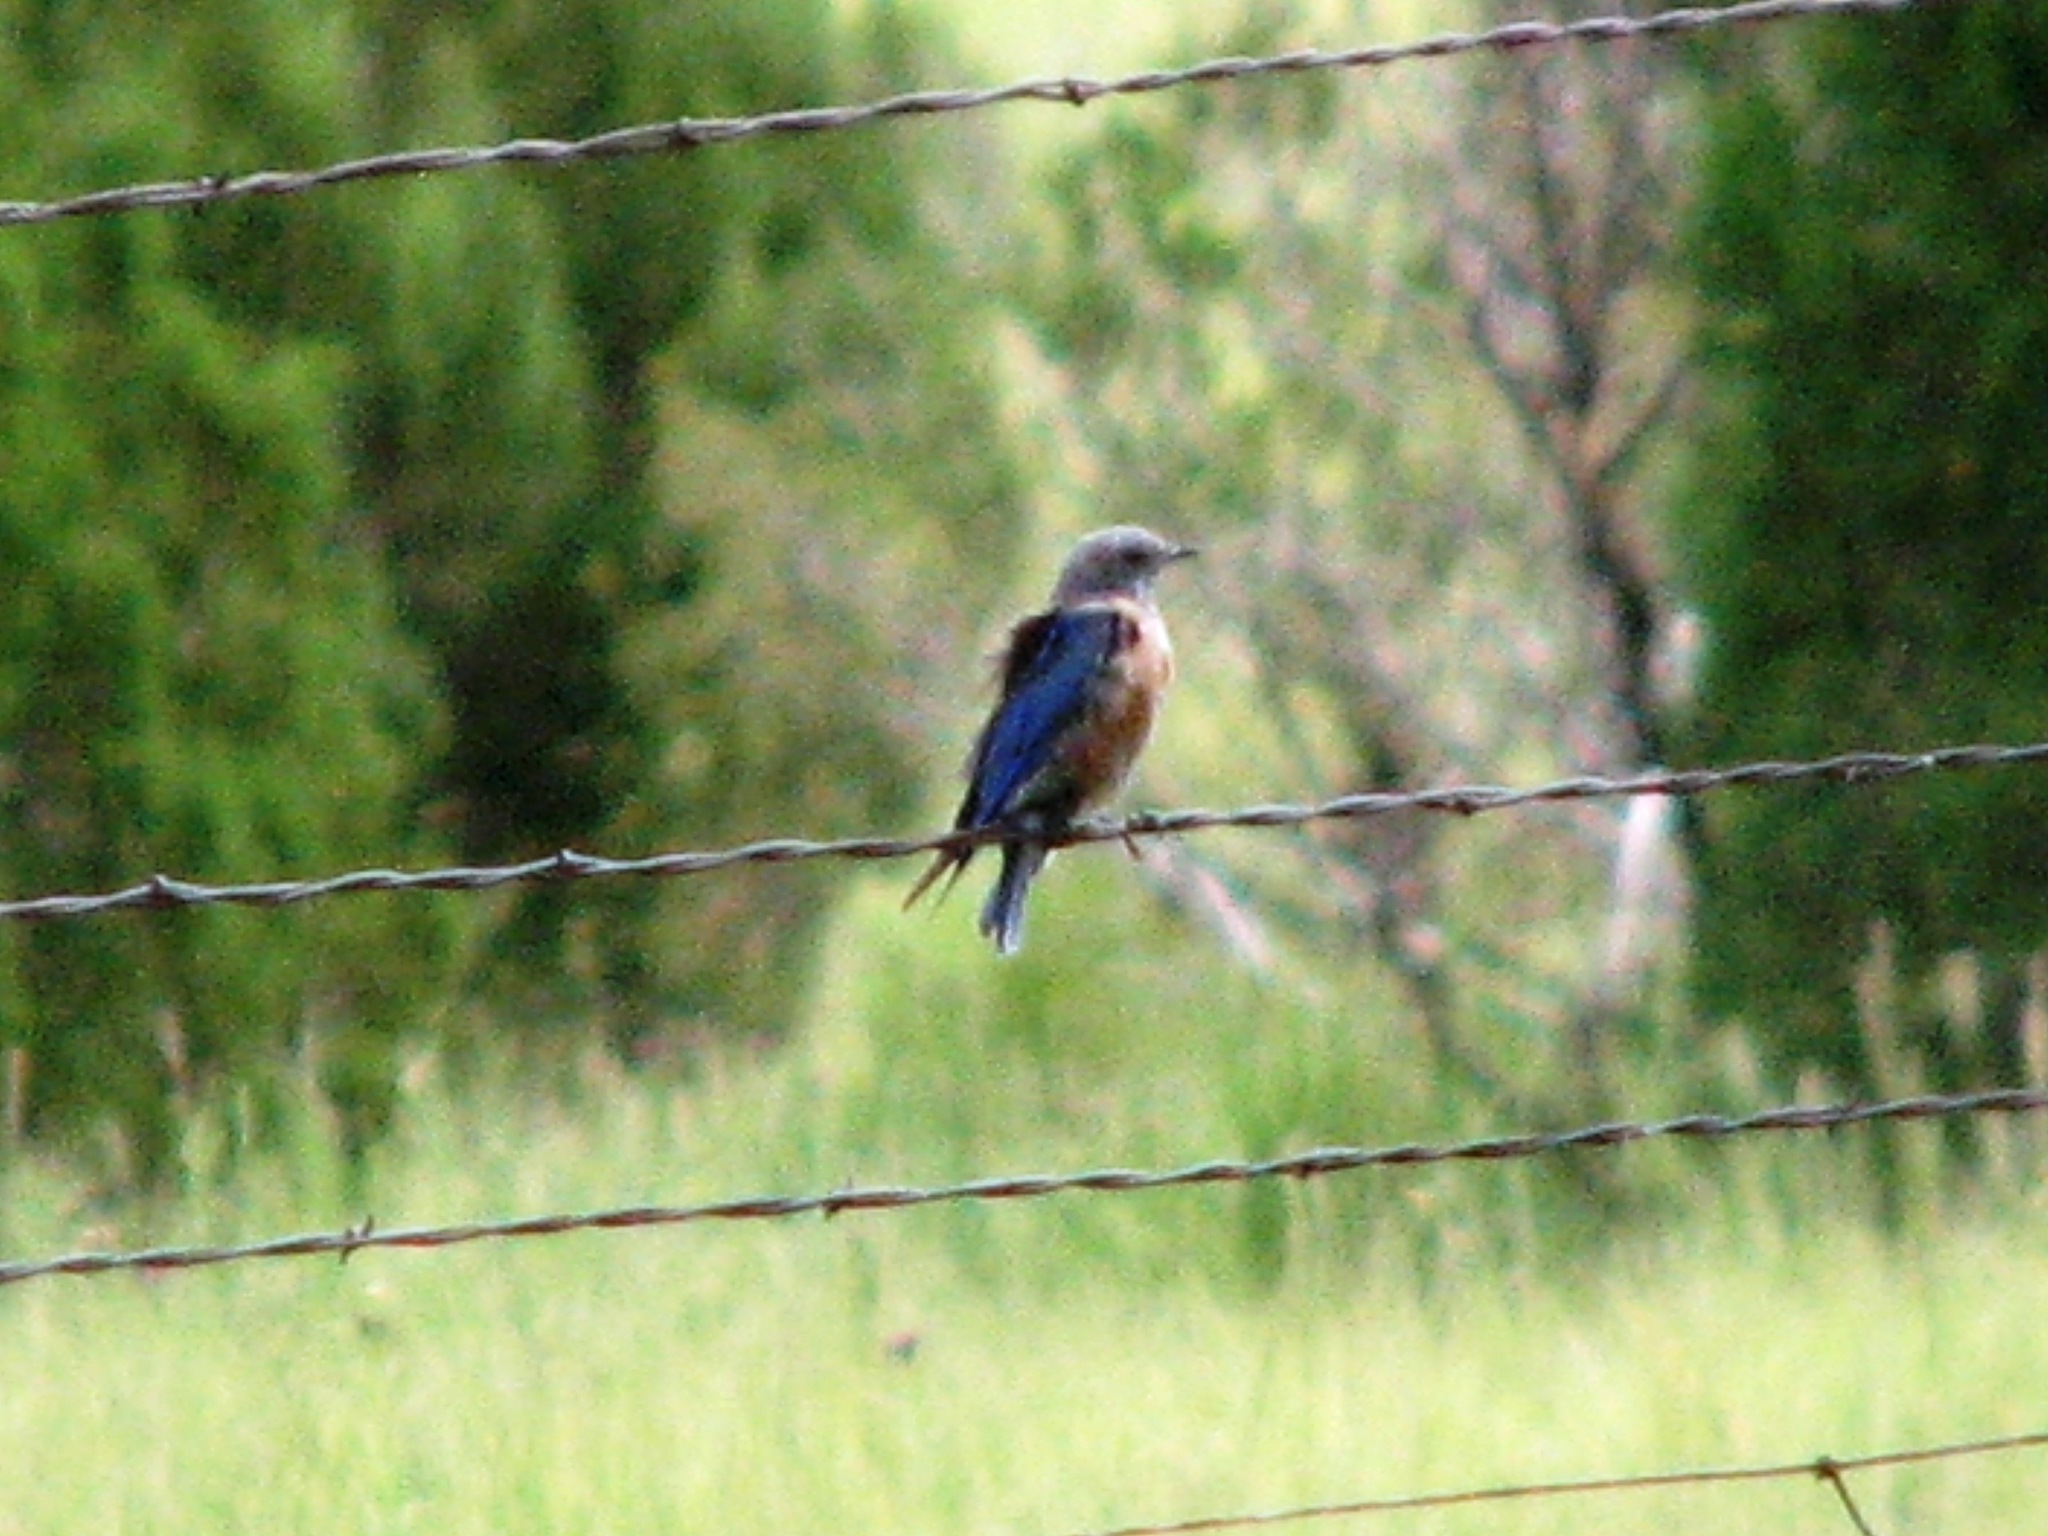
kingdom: Animalia
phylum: Chordata
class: Aves
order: Passeriformes
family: Turdidae
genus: Sialia
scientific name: Sialia mexicana
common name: Western bluebird
